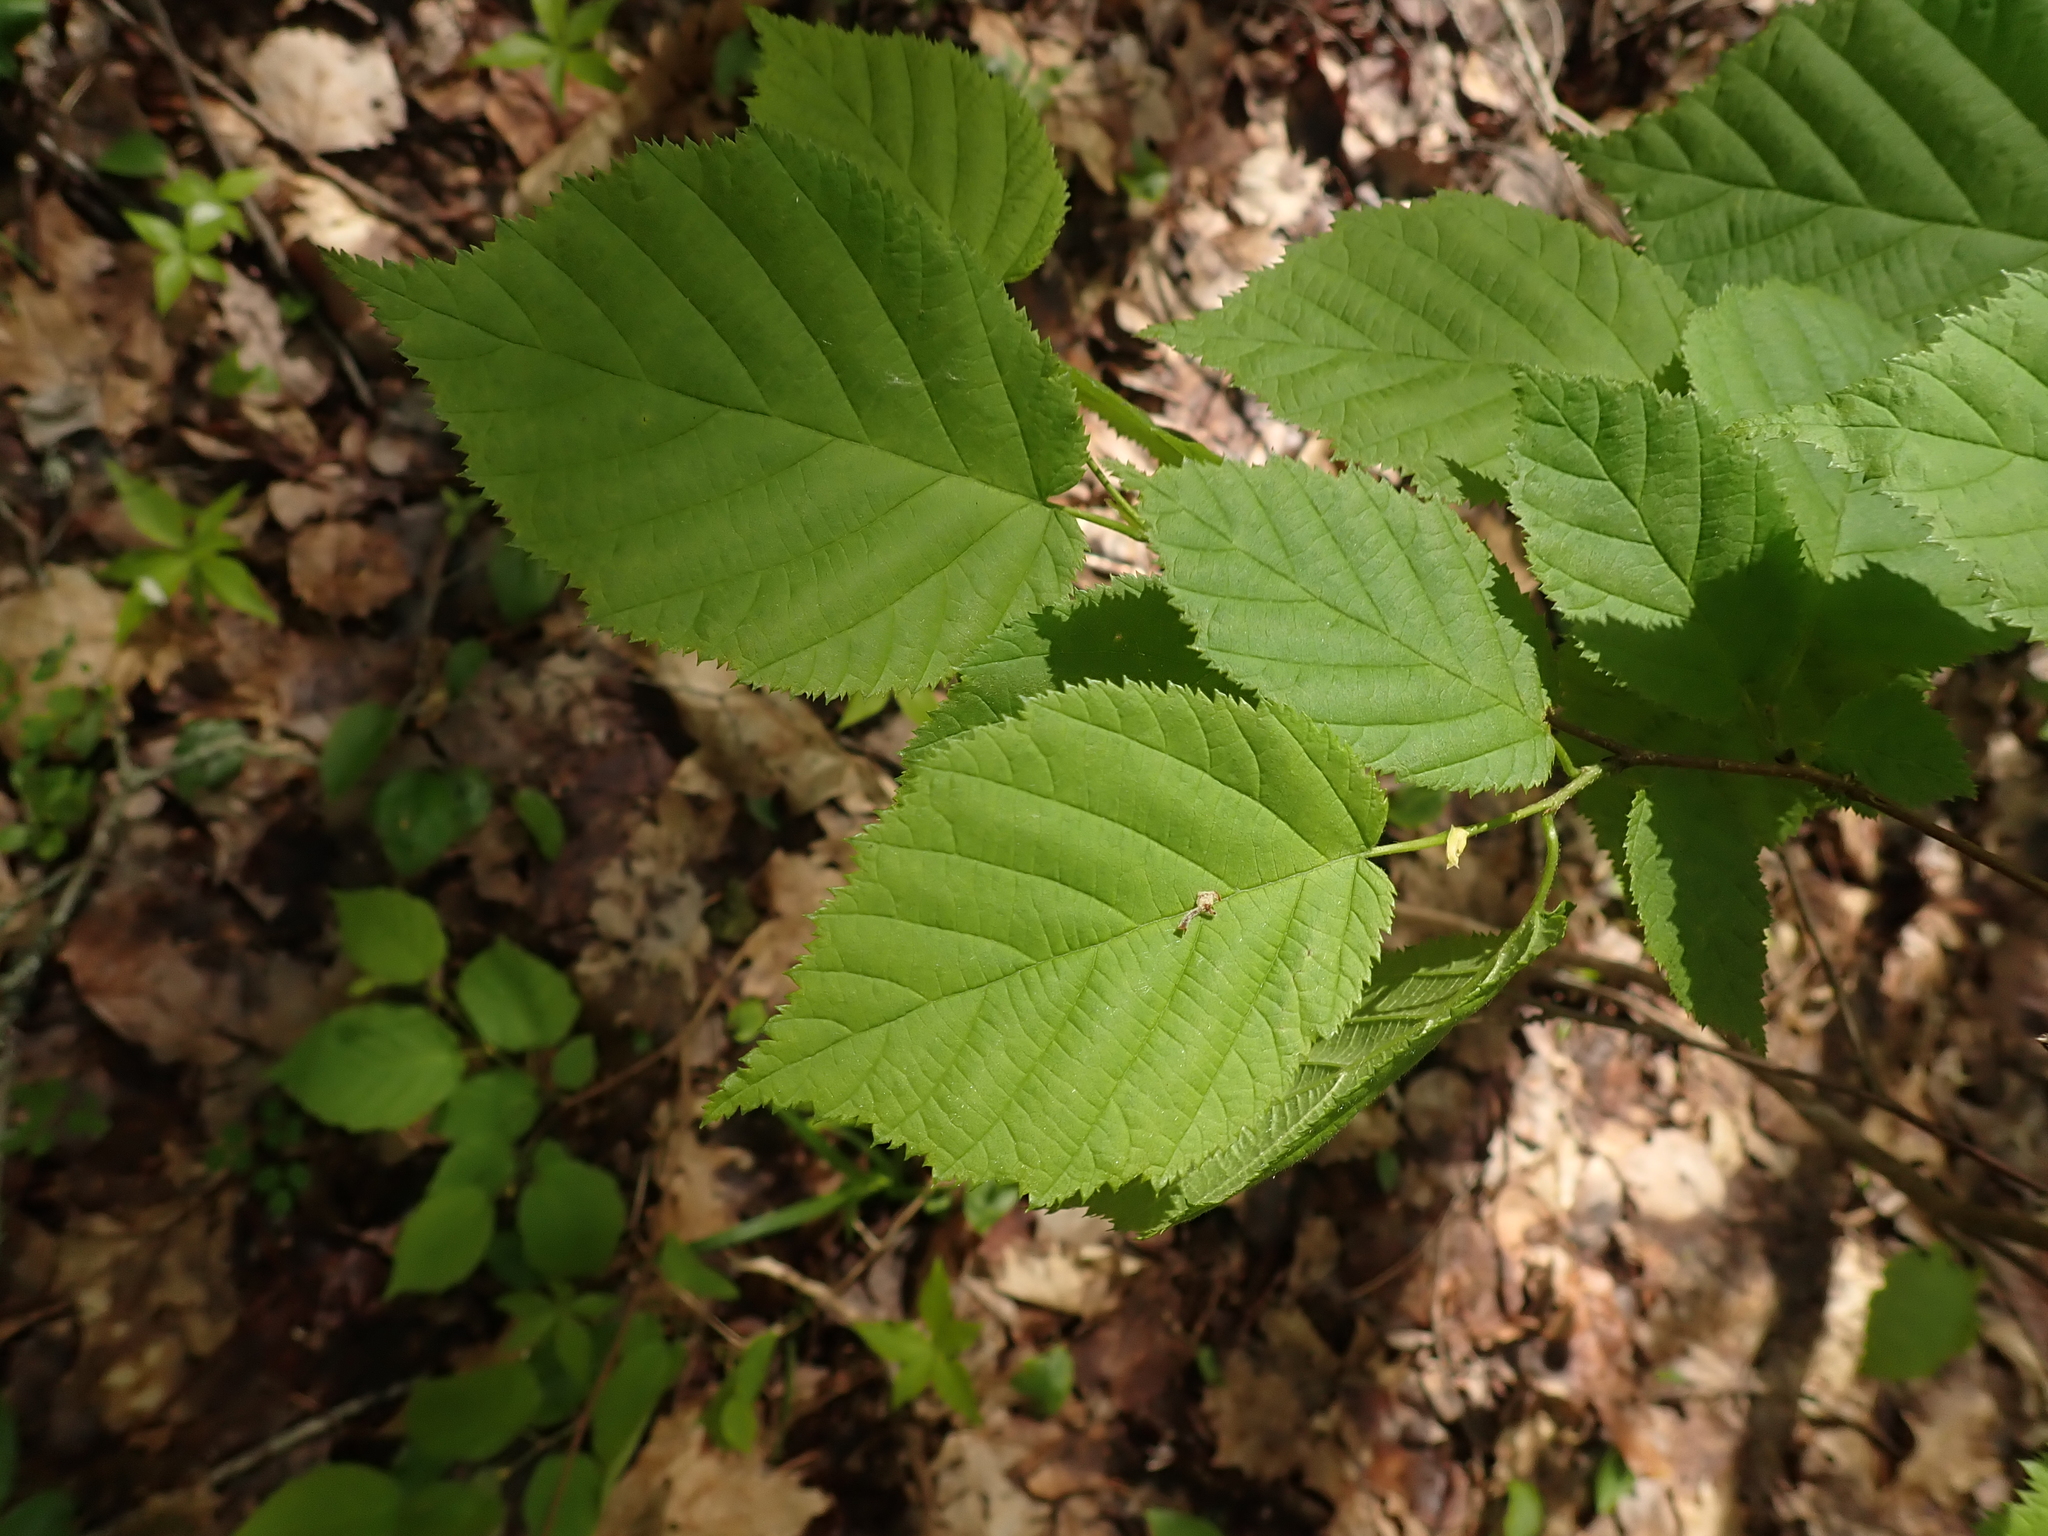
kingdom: Plantae
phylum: Tracheophyta
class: Magnoliopsida
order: Fagales
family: Betulaceae
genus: Corylus
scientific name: Corylus cornuta
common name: Beaked hazel
